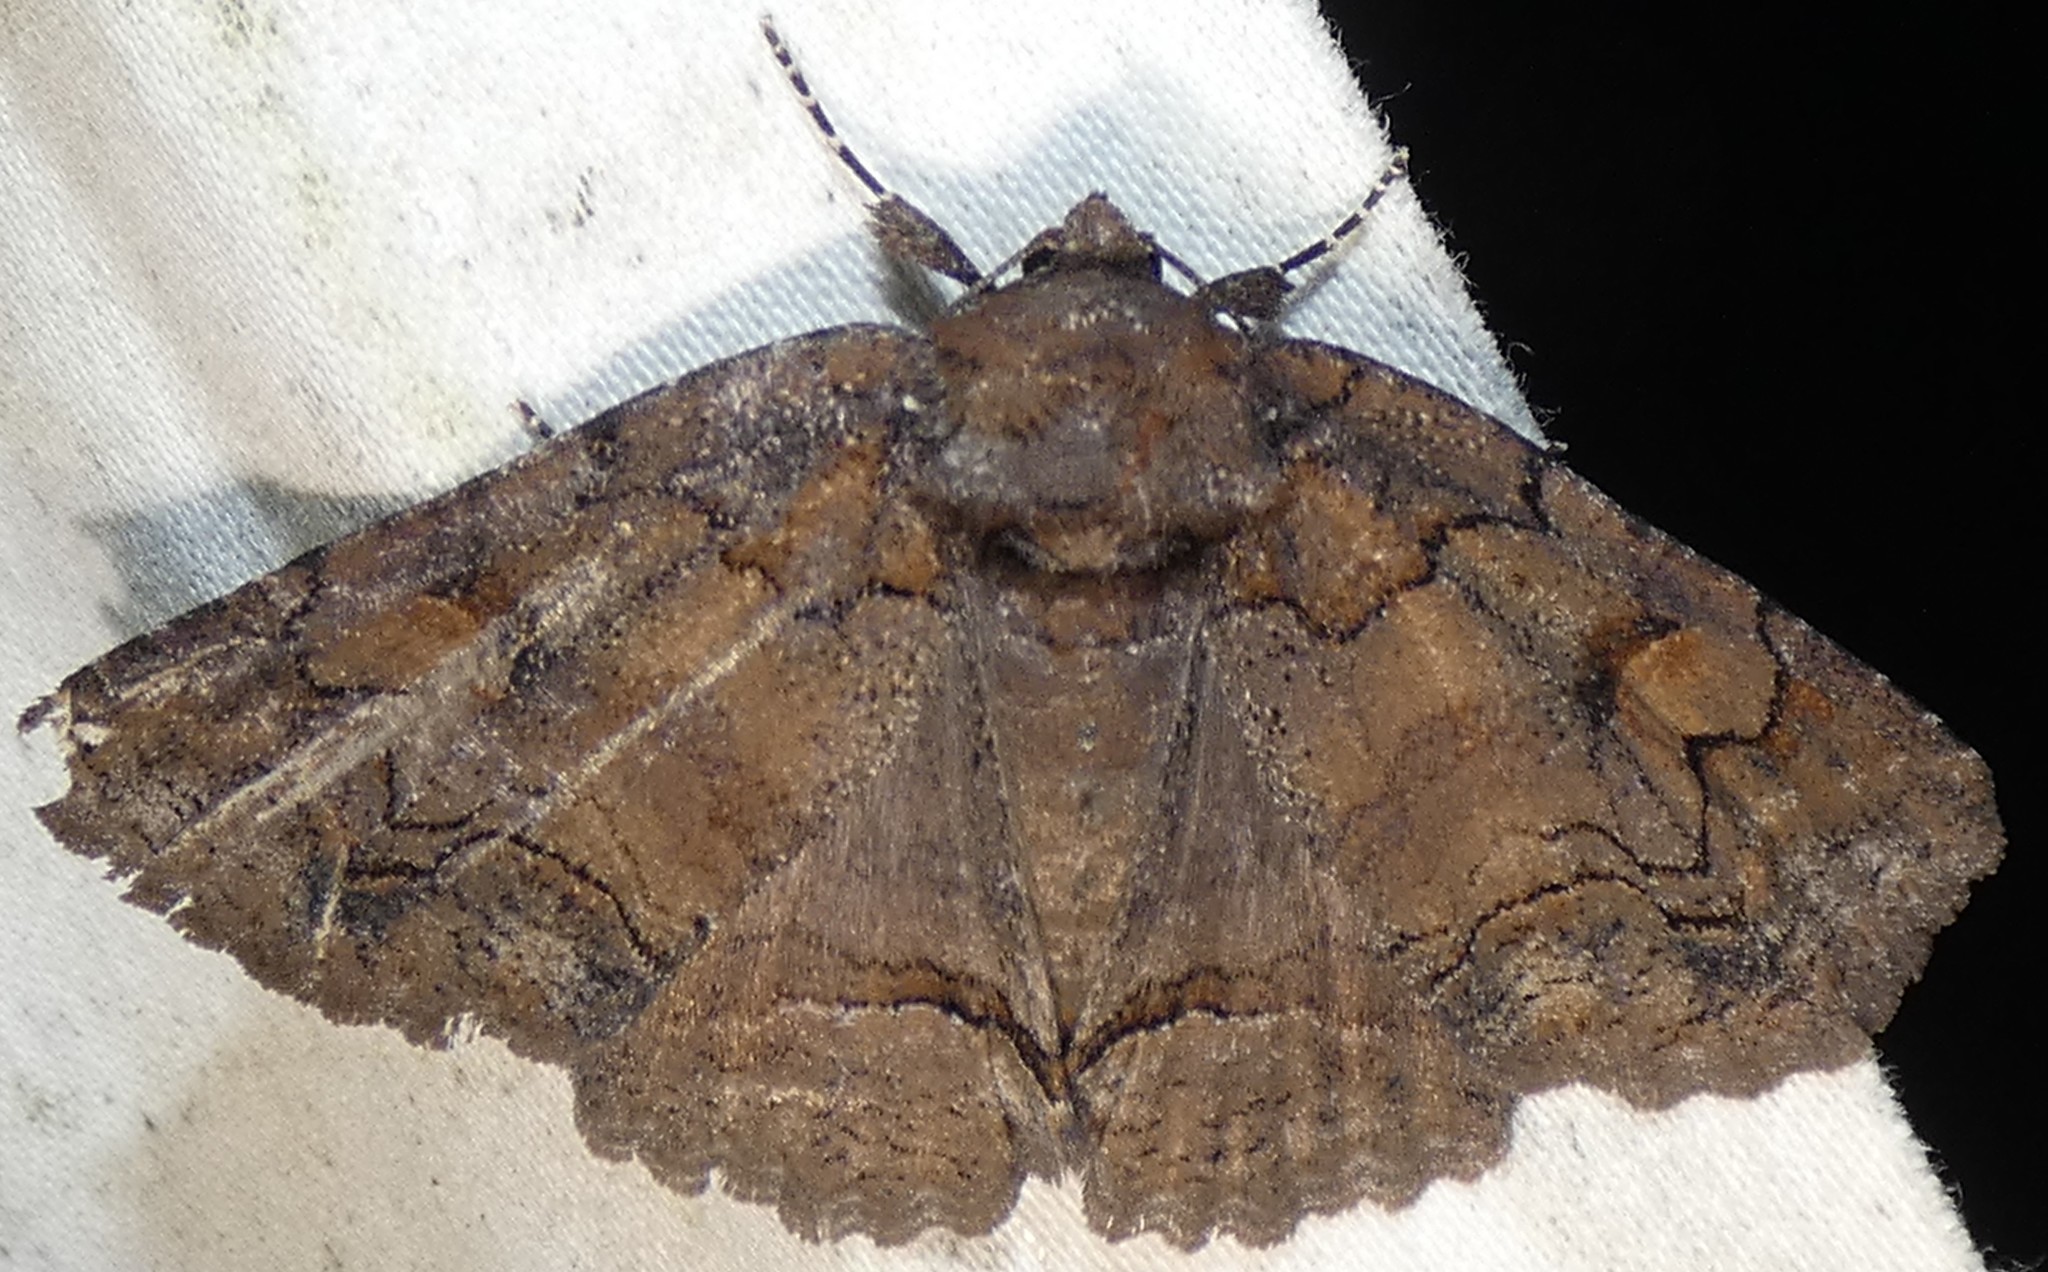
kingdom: Animalia
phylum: Arthropoda
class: Insecta
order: Lepidoptera
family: Erebidae
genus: Zale
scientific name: Zale helata
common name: Brown-spotted zale moth
